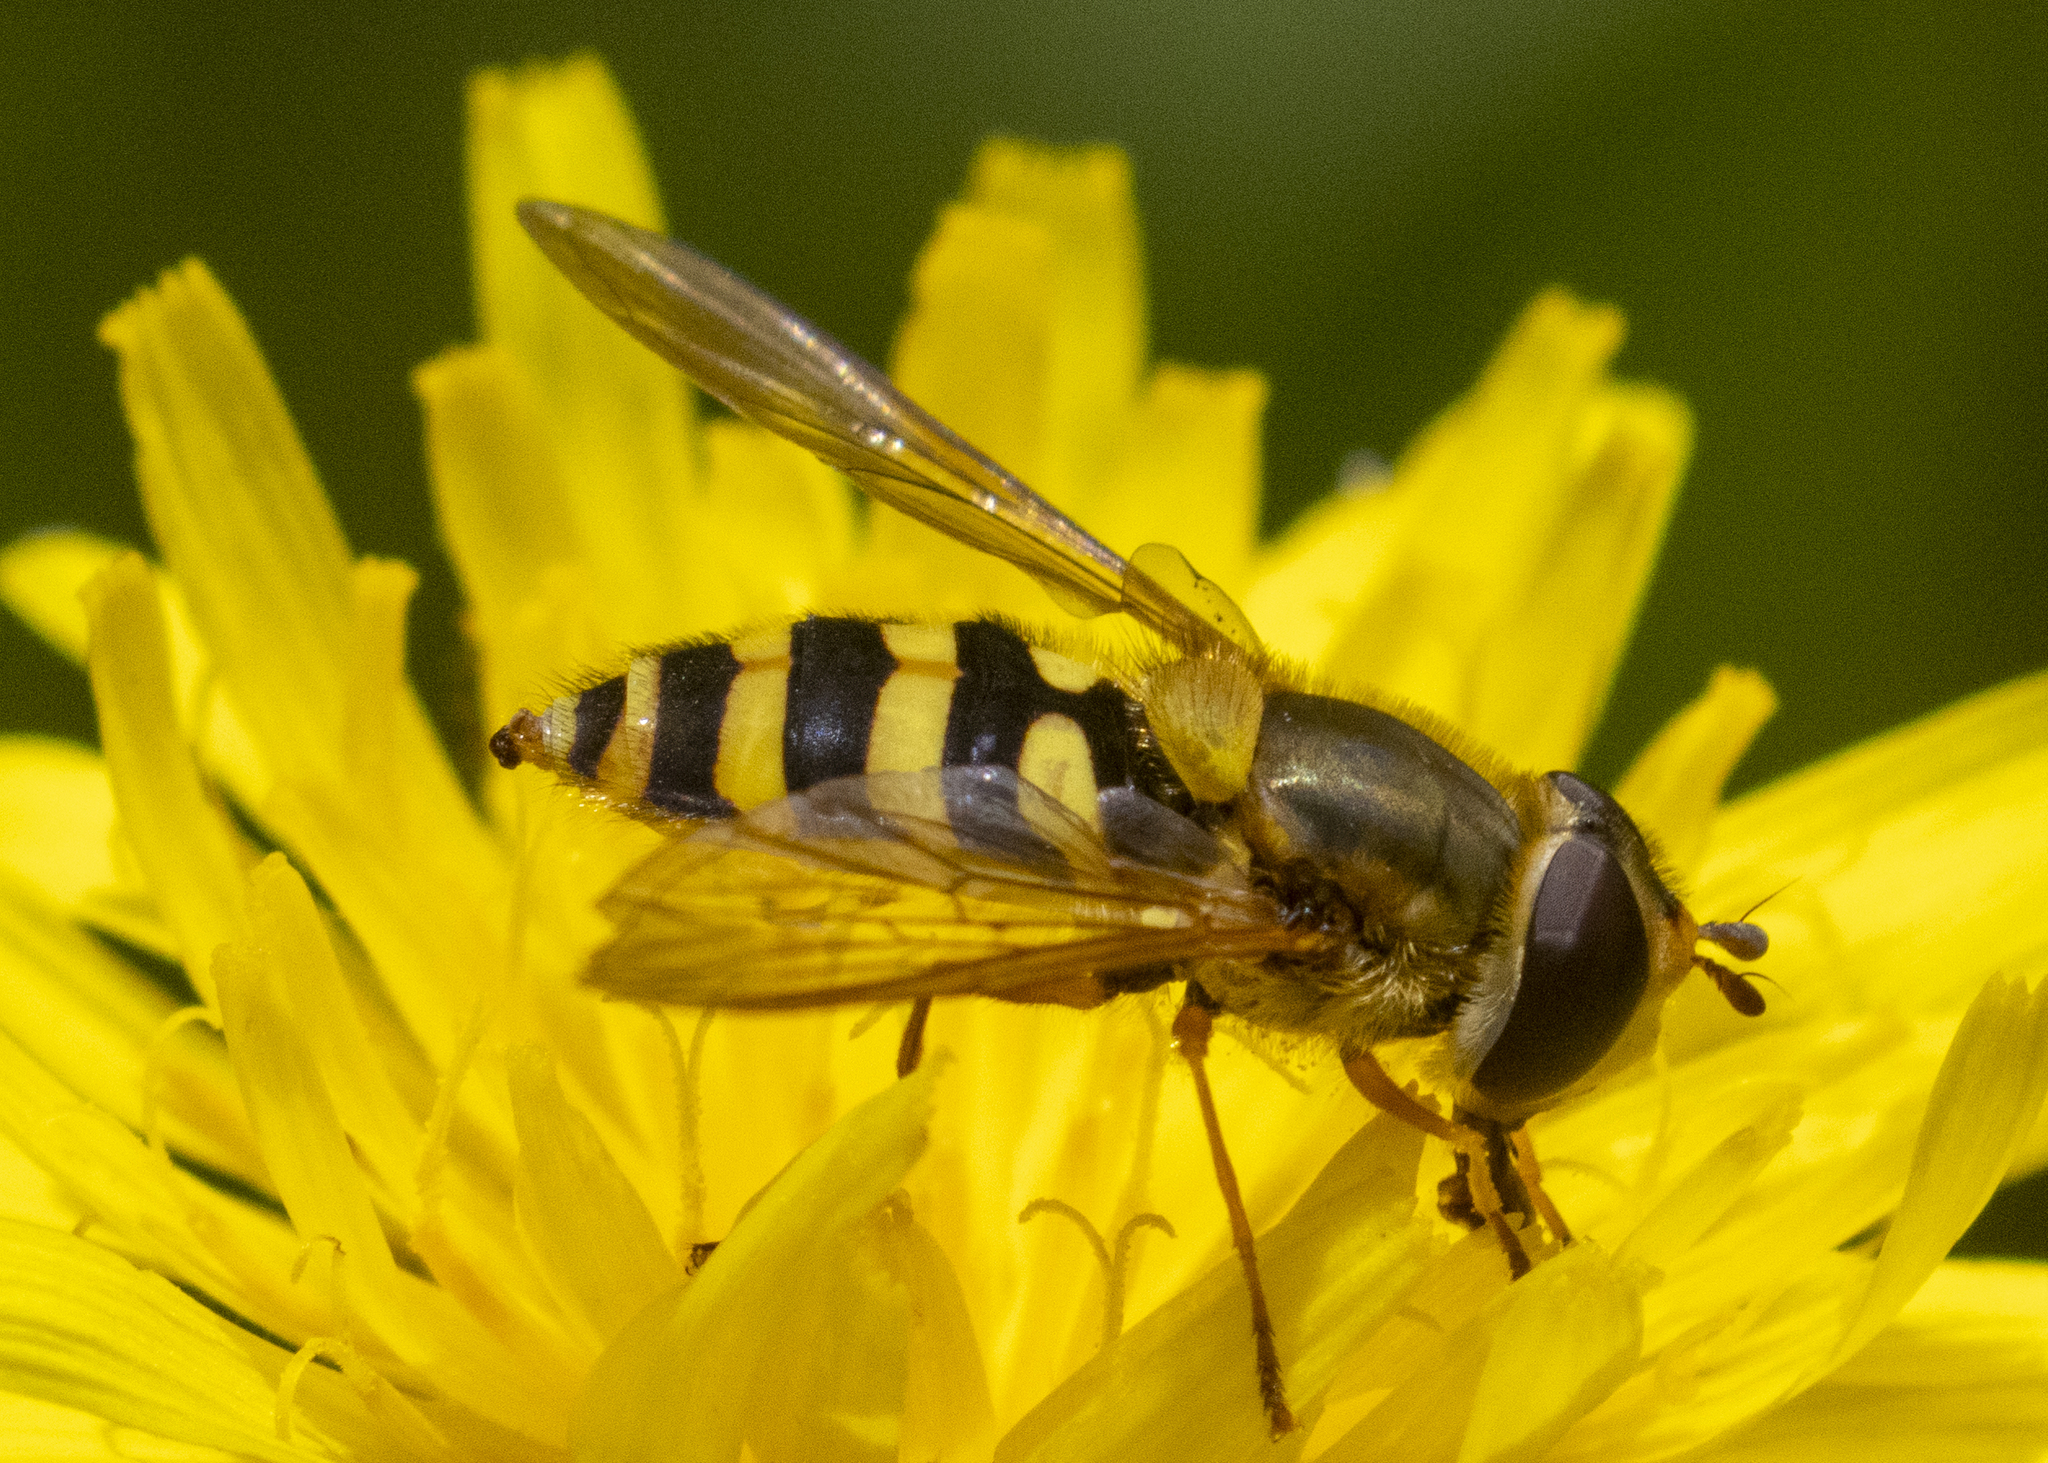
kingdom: Animalia
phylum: Arthropoda
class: Insecta
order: Diptera
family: Syrphidae
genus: Syrphus
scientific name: Syrphus ribesii
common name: Common flower fly
